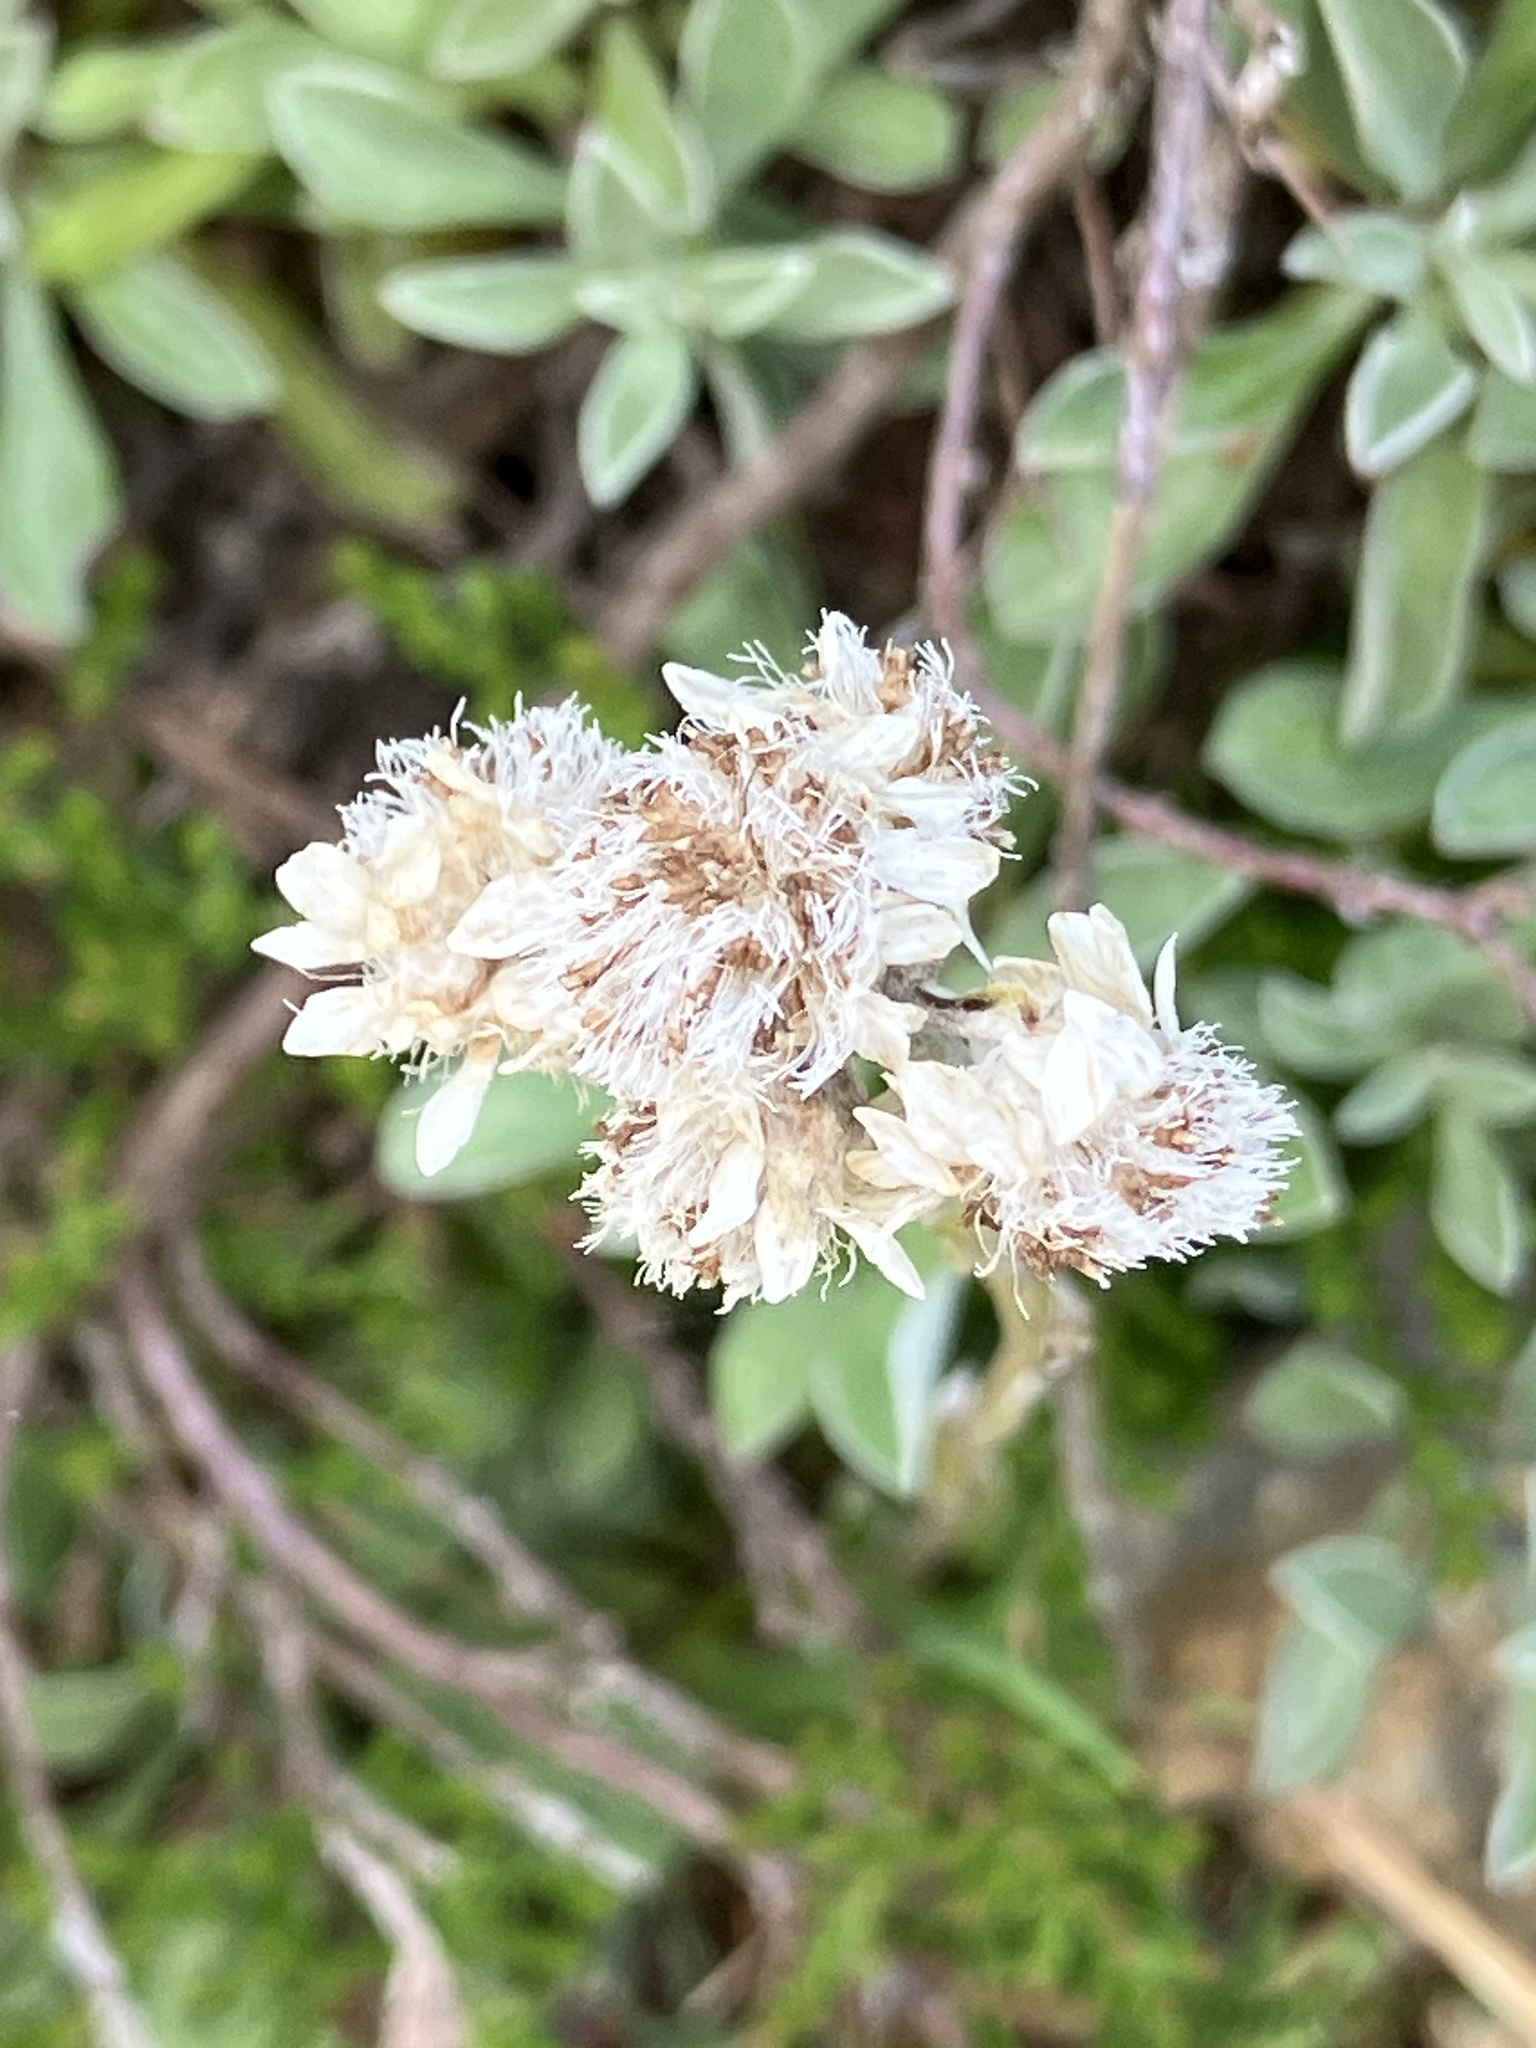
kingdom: Plantae
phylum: Tracheophyta
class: Magnoliopsida
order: Asterales
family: Asteraceae
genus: Antennaria
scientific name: Antennaria dioica
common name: Mountain everlasting
